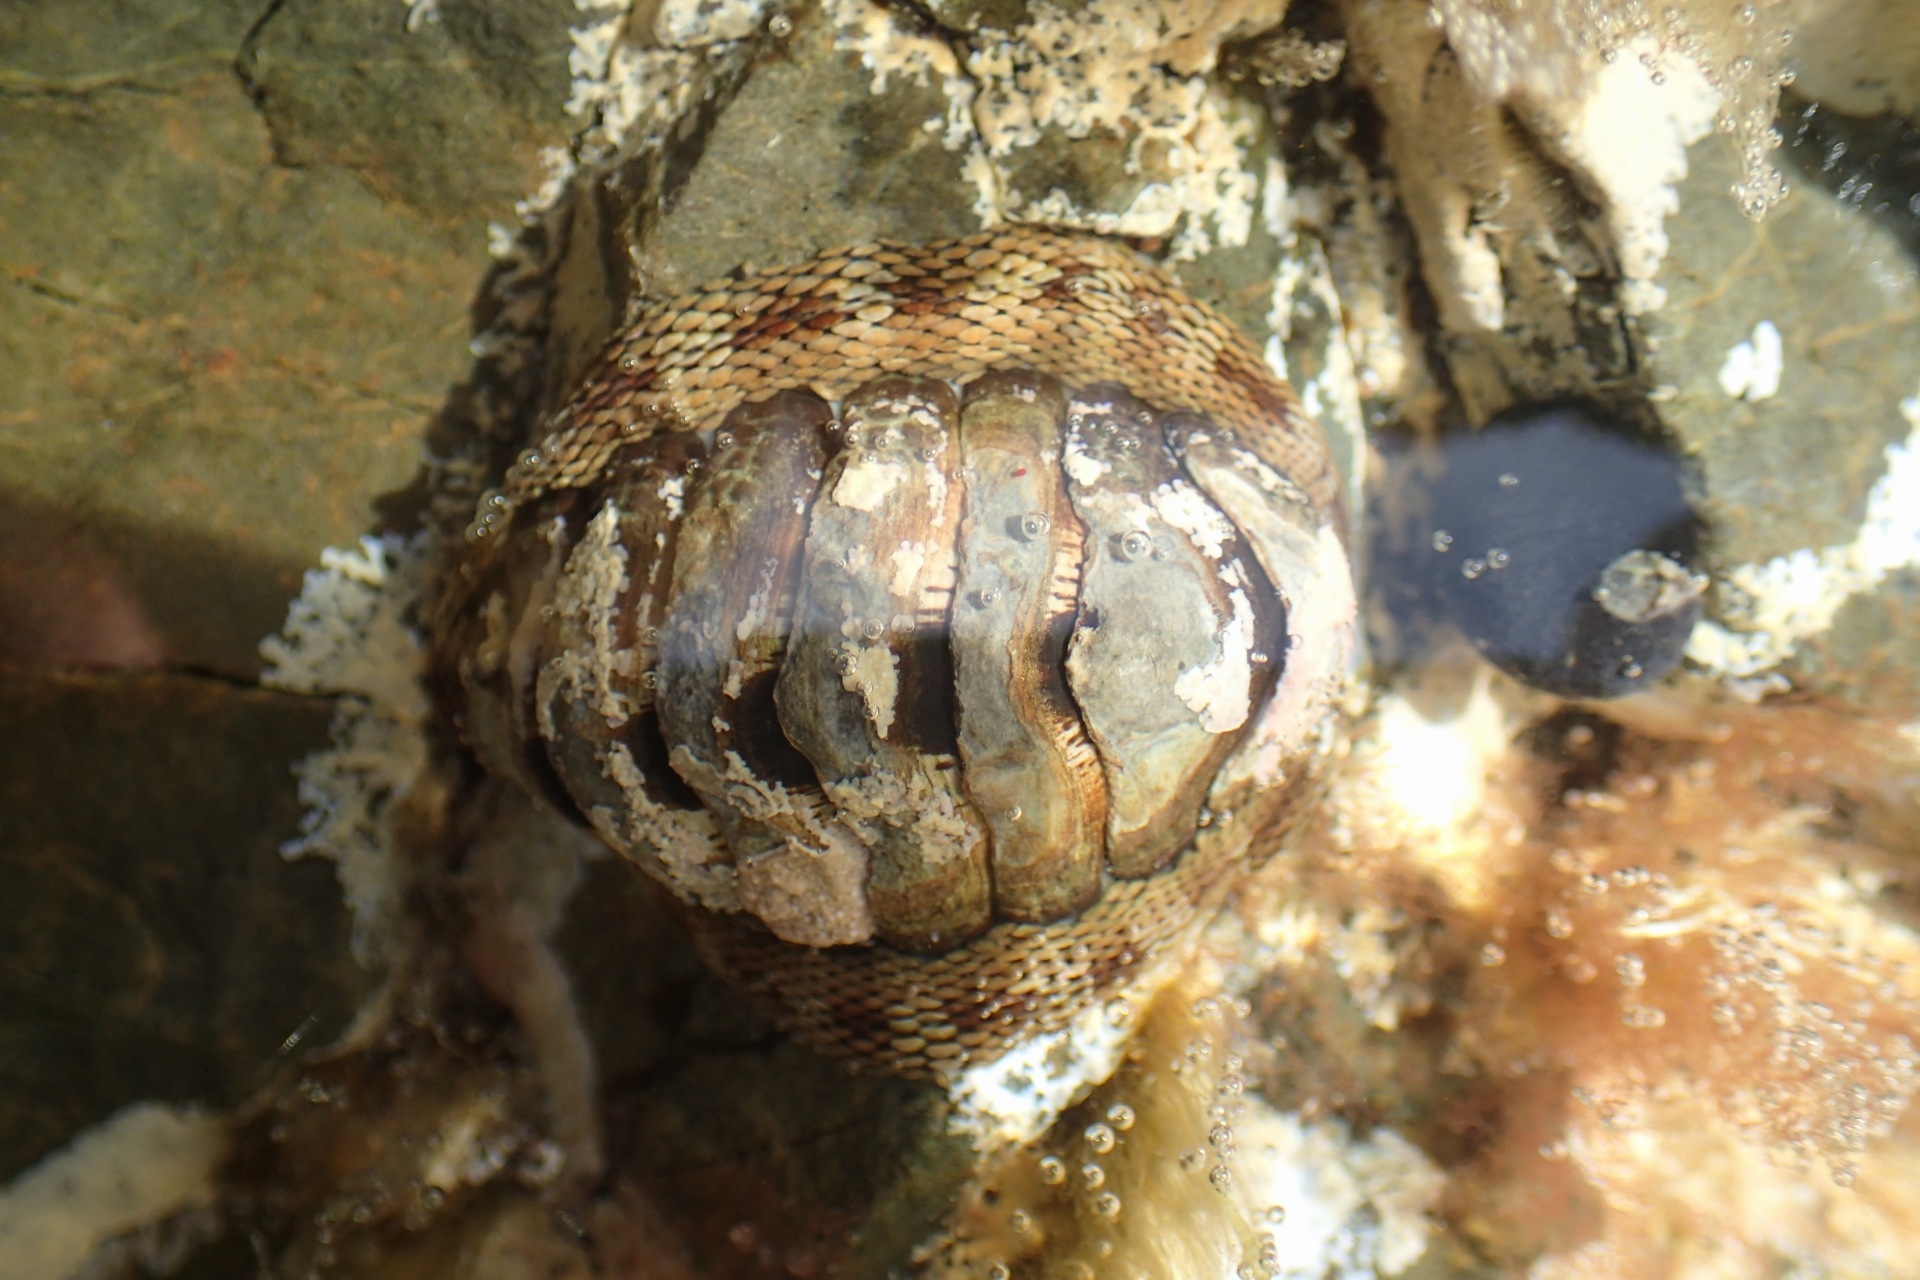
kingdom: Animalia
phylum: Mollusca
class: Polyplacophora
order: Chitonida
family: Chitonidae
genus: Sypharochiton
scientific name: Sypharochiton pelliserpentis
